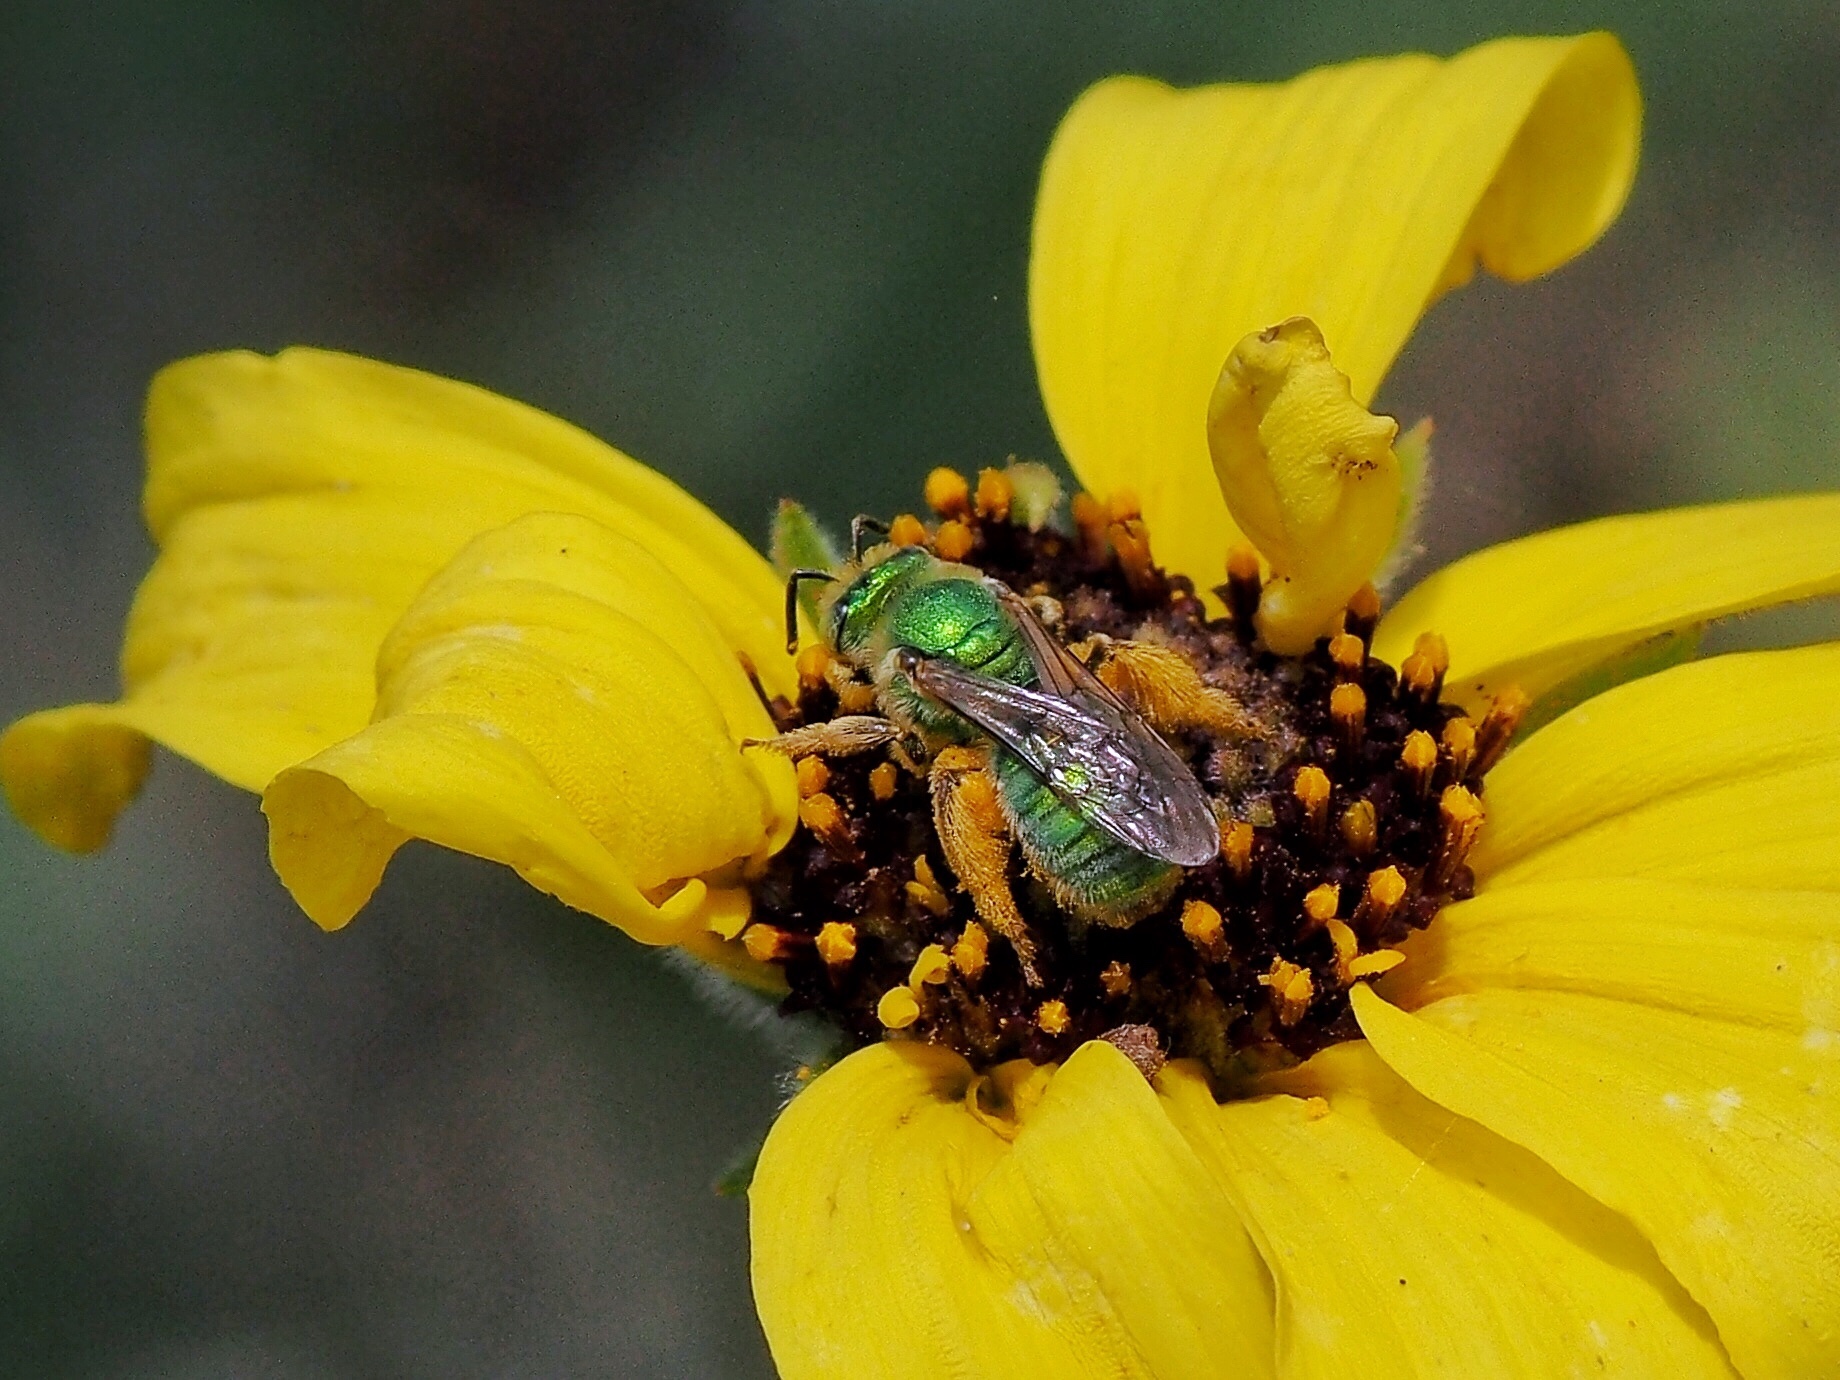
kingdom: Animalia
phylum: Arthropoda
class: Insecta
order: Hymenoptera
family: Halictidae
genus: Agapostemon
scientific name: Agapostemon texanus
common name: Texas striped sweat bee
